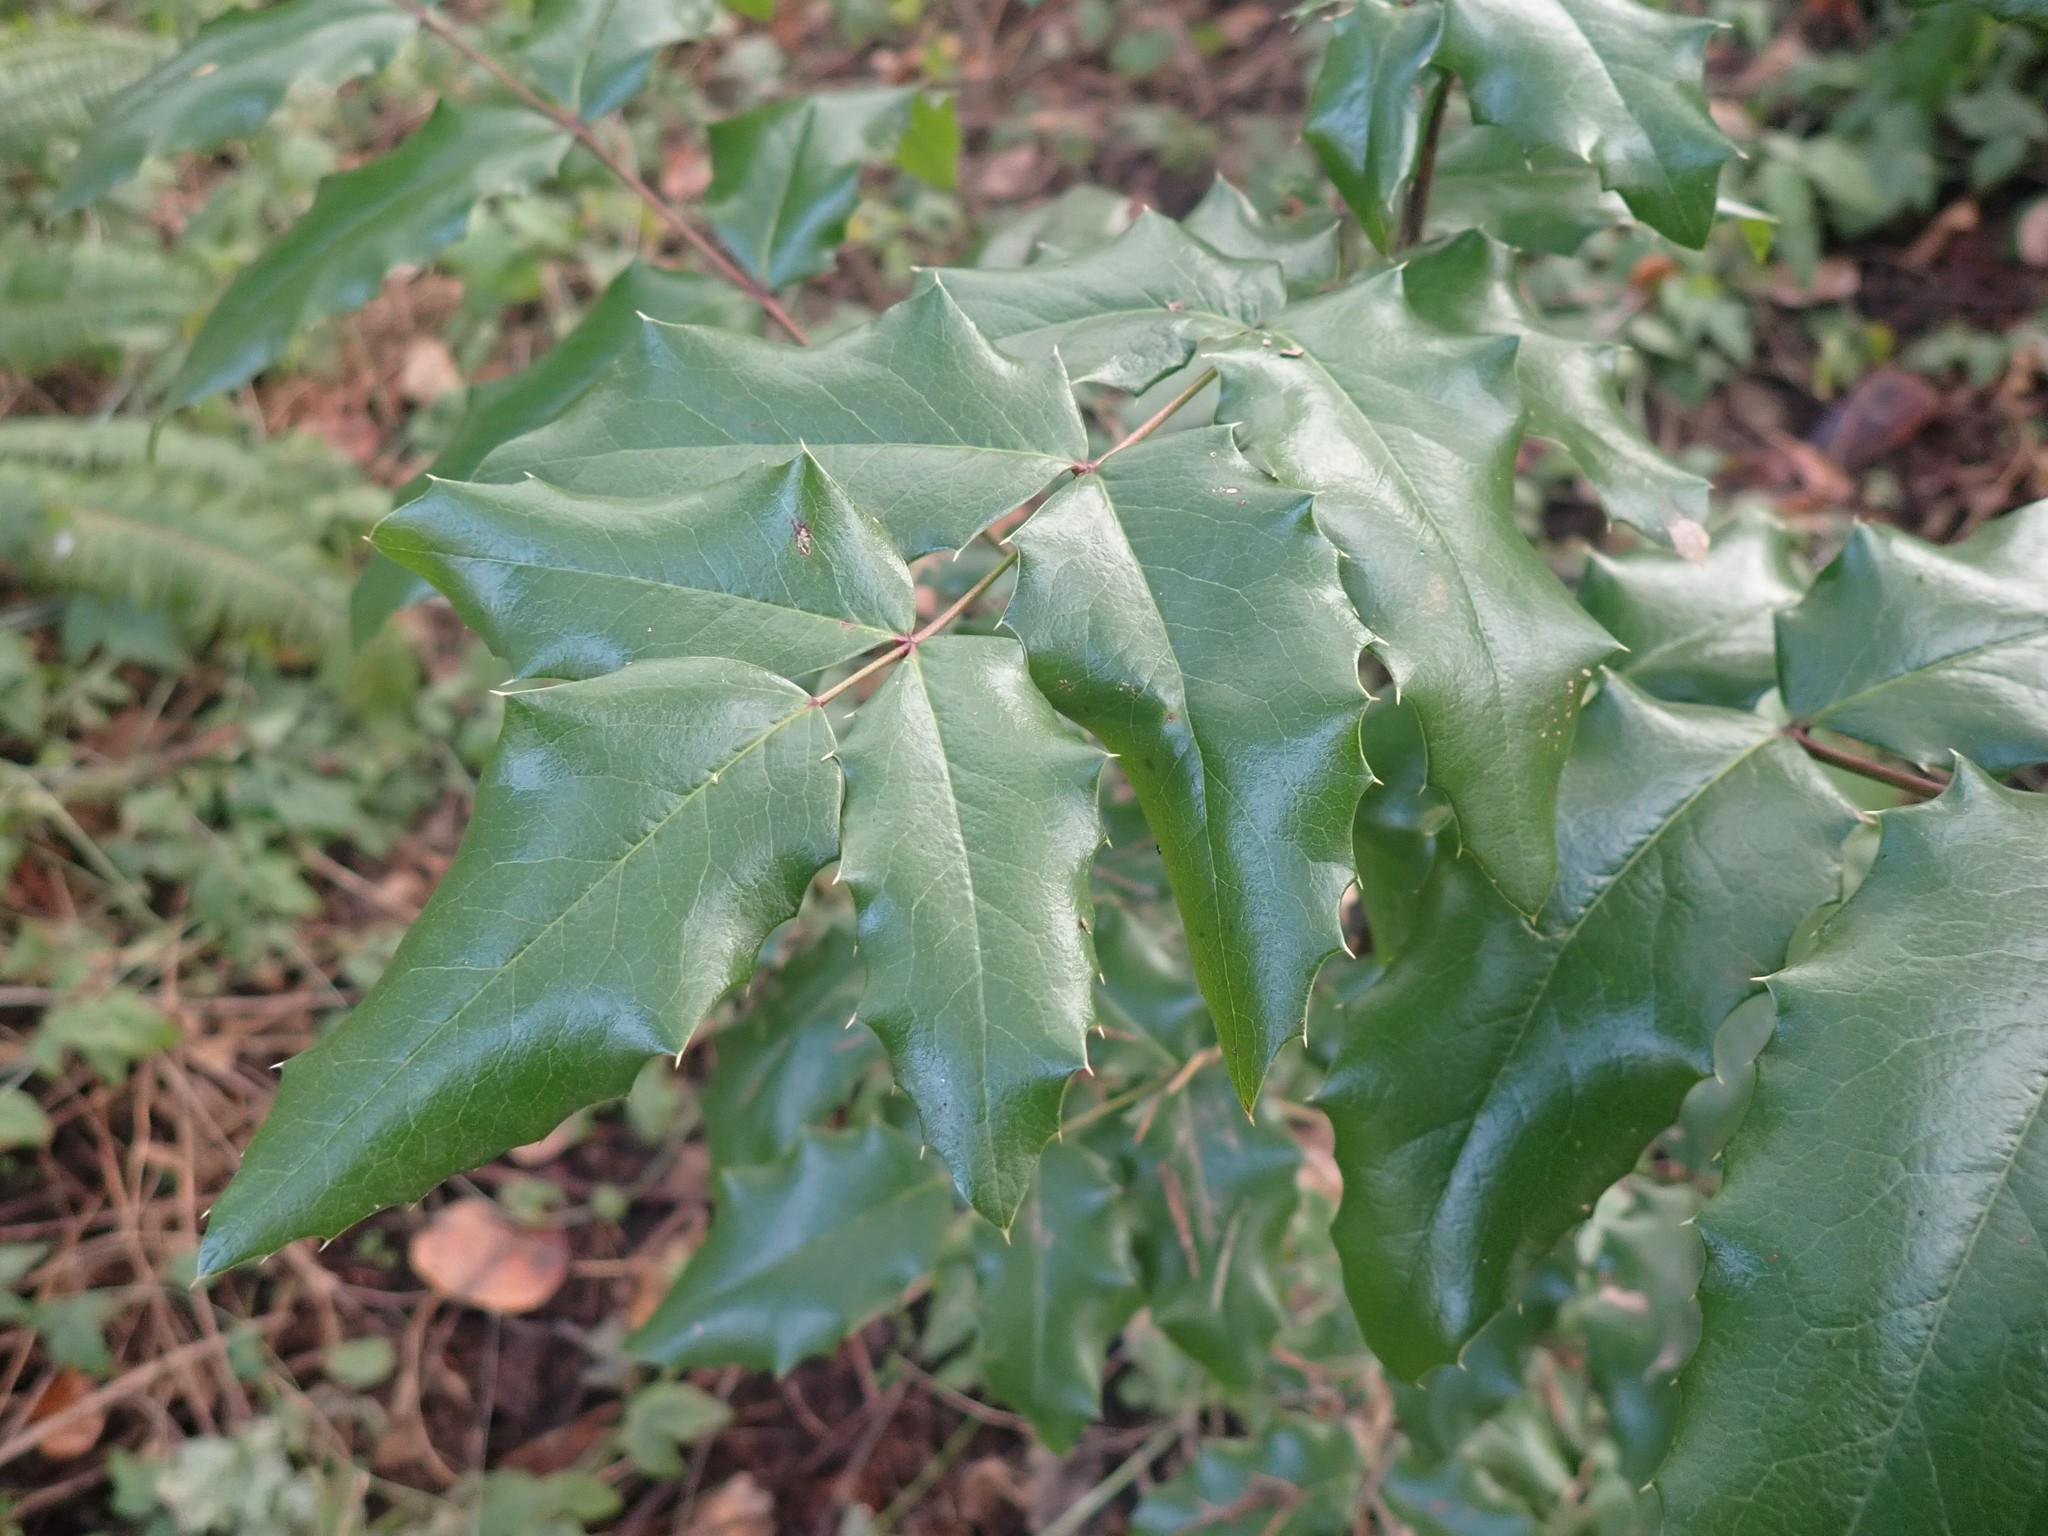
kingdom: Plantae
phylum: Tracheophyta
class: Magnoliopsida
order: Ranunculales
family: Berberidaceae
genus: Mahonia
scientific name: Mahonia aquifolium
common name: Oregon-grape
